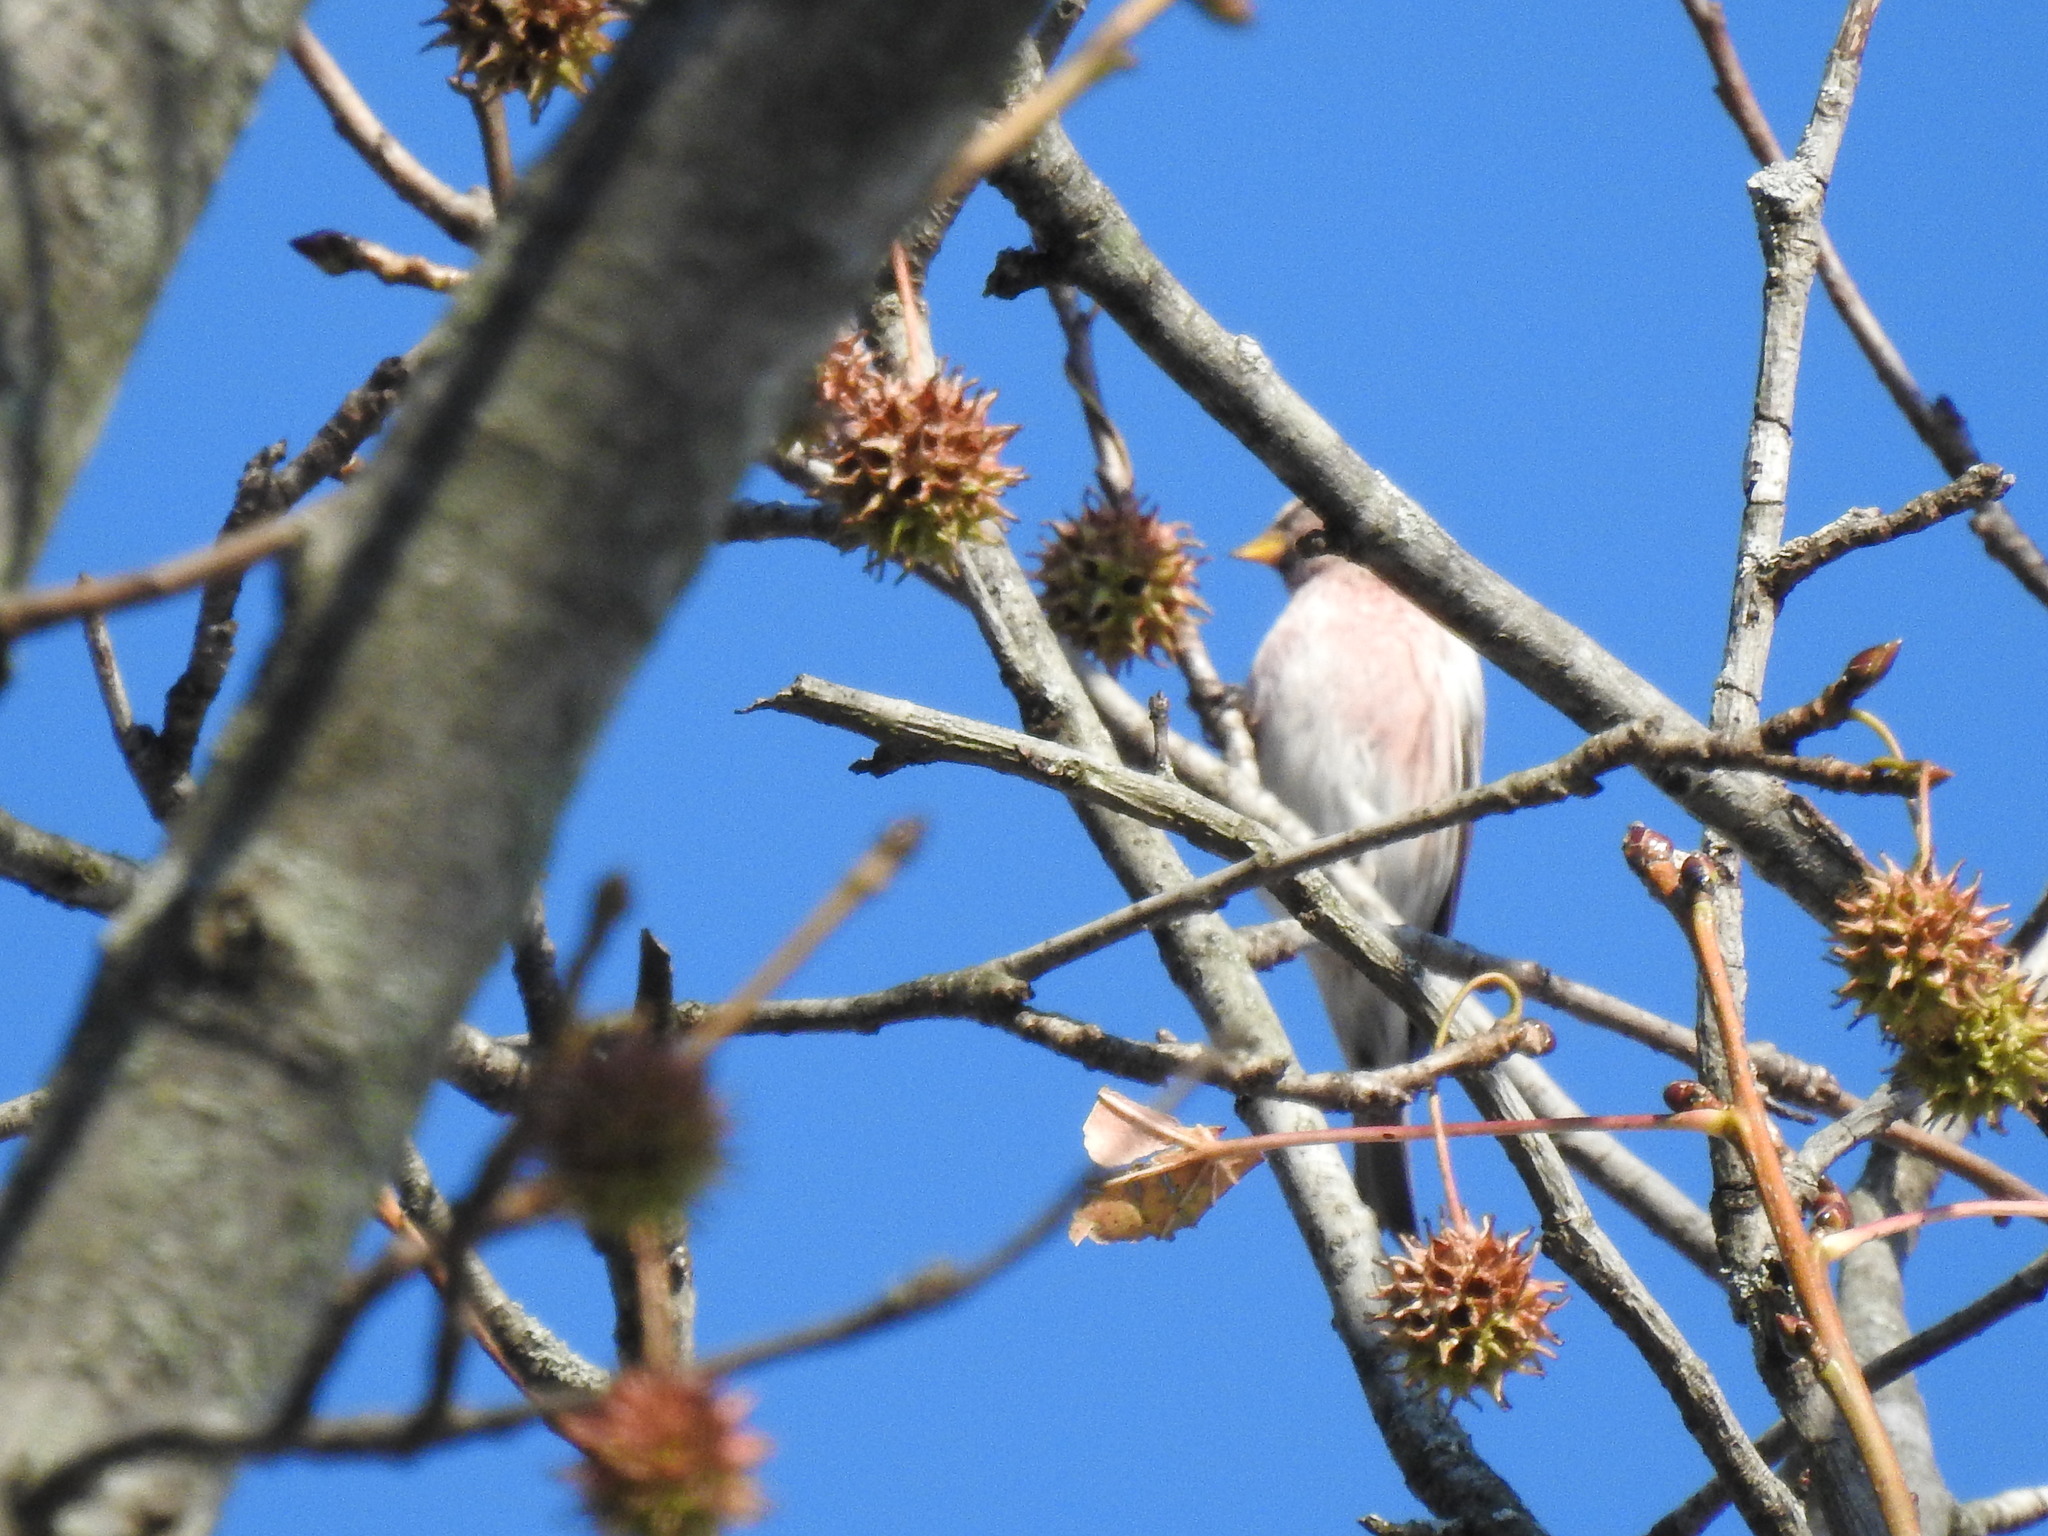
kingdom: Animalia
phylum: Chordata
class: Aves
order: Passeriformes
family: Fringillidae
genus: Acanthis
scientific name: Acanthis flammea
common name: Common redpoll
